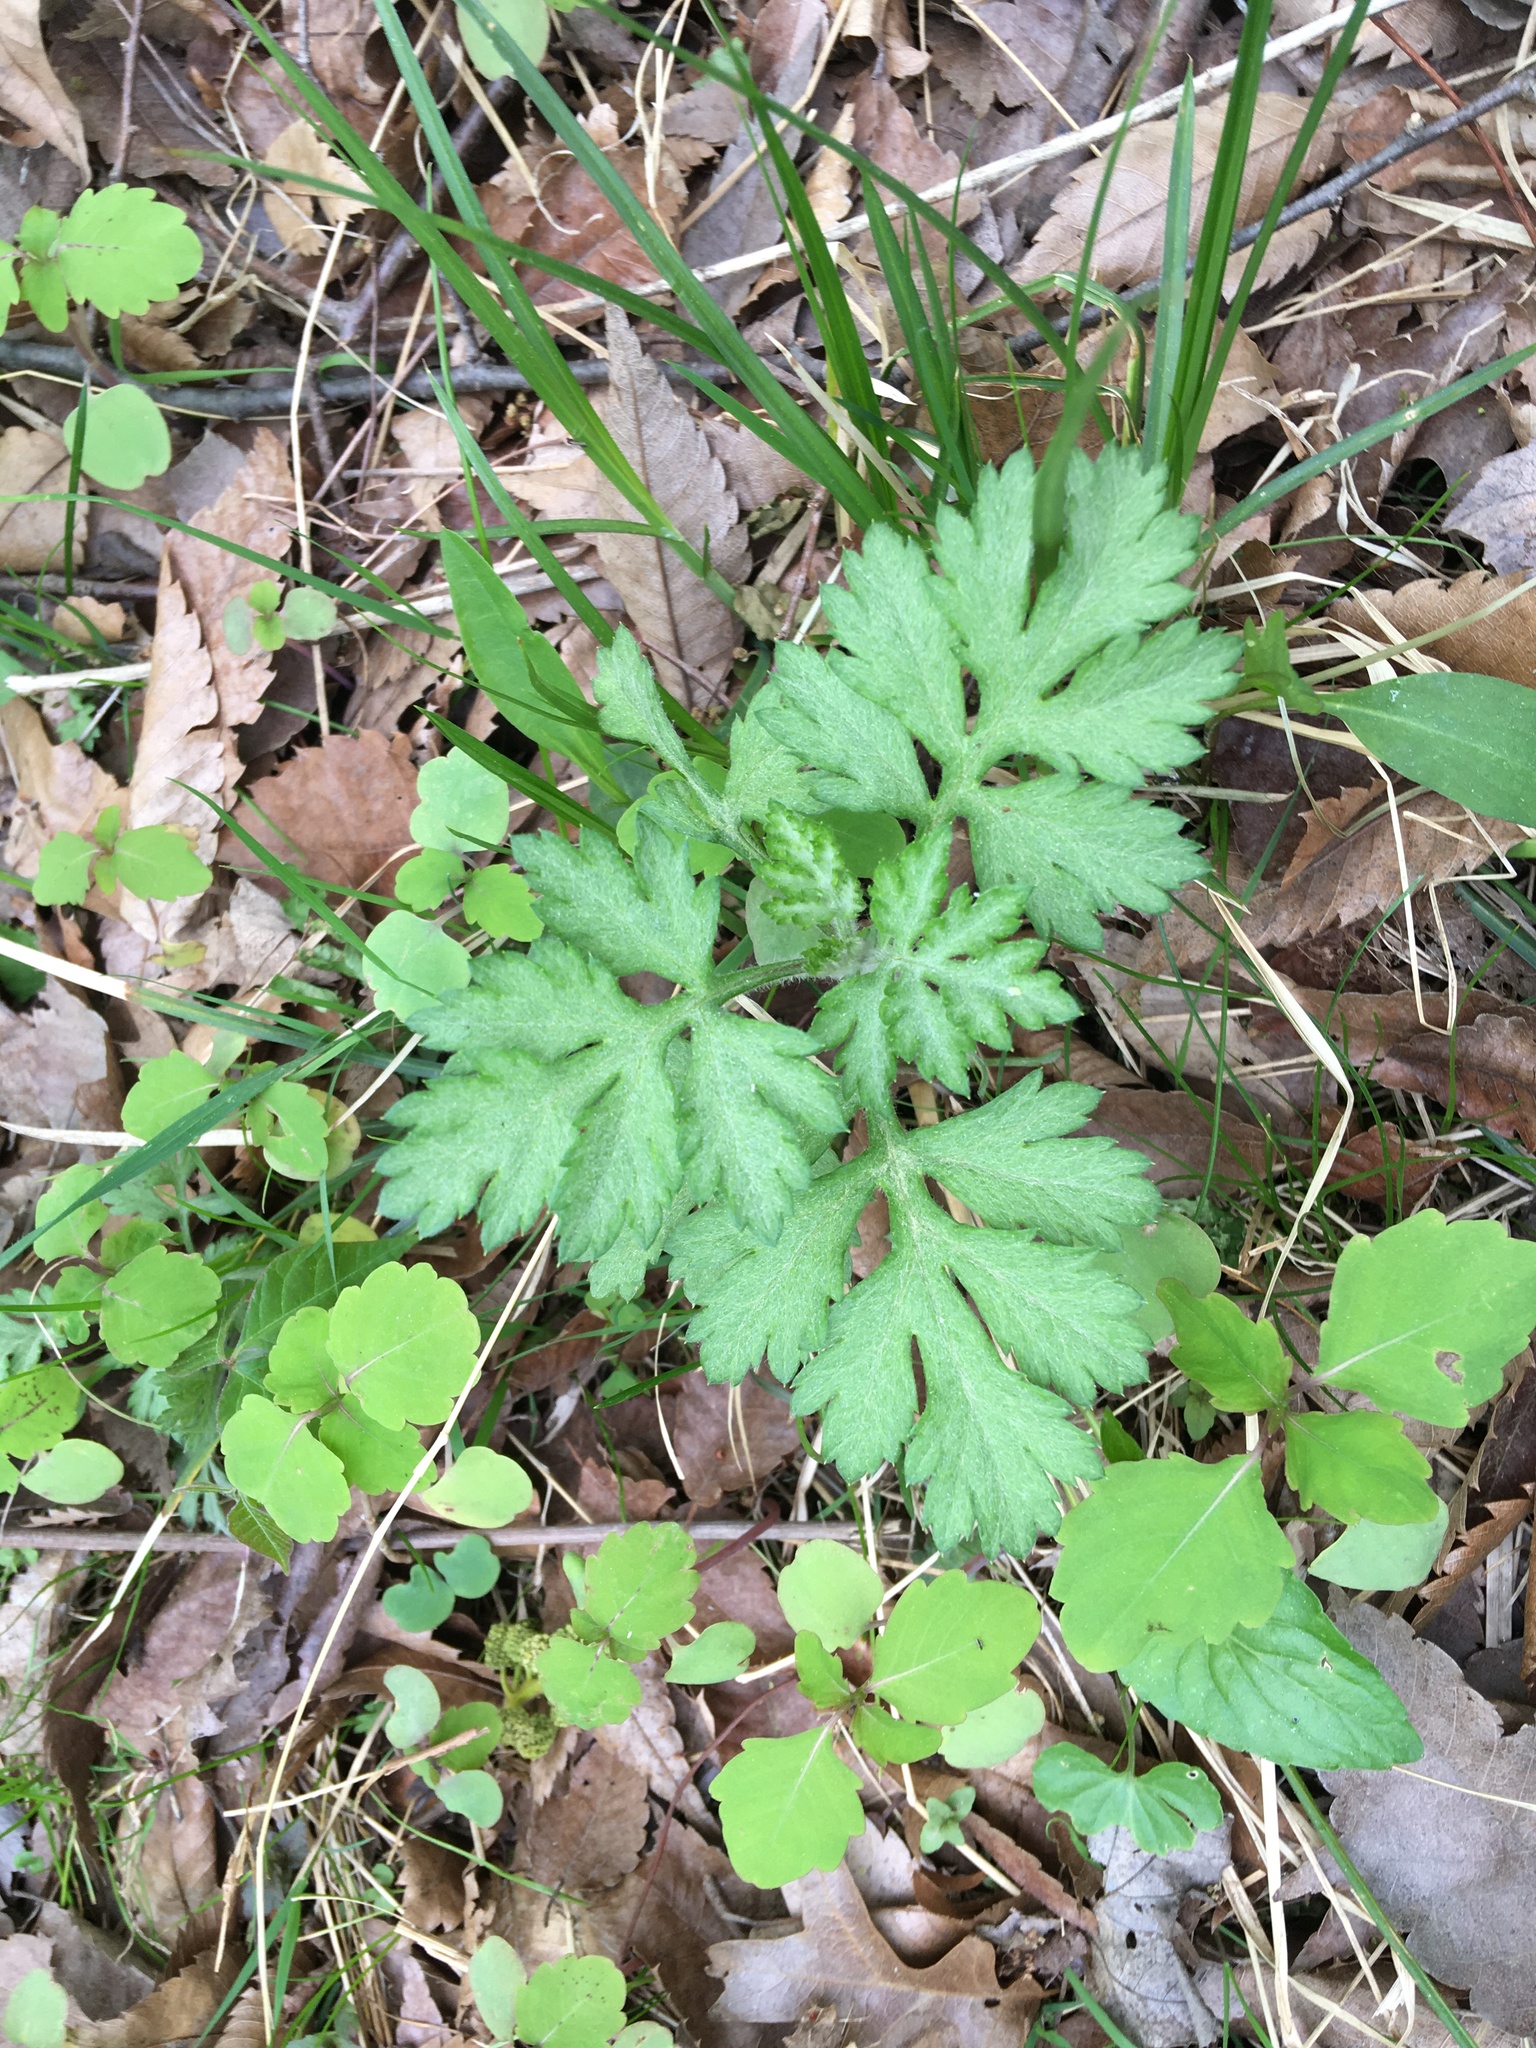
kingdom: Plantae
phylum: Tracheophyta
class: Magnoliopsida
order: Asterales
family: Asteraceae
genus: Artemisia
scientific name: Artemisia vulgaris
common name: Mugwort
